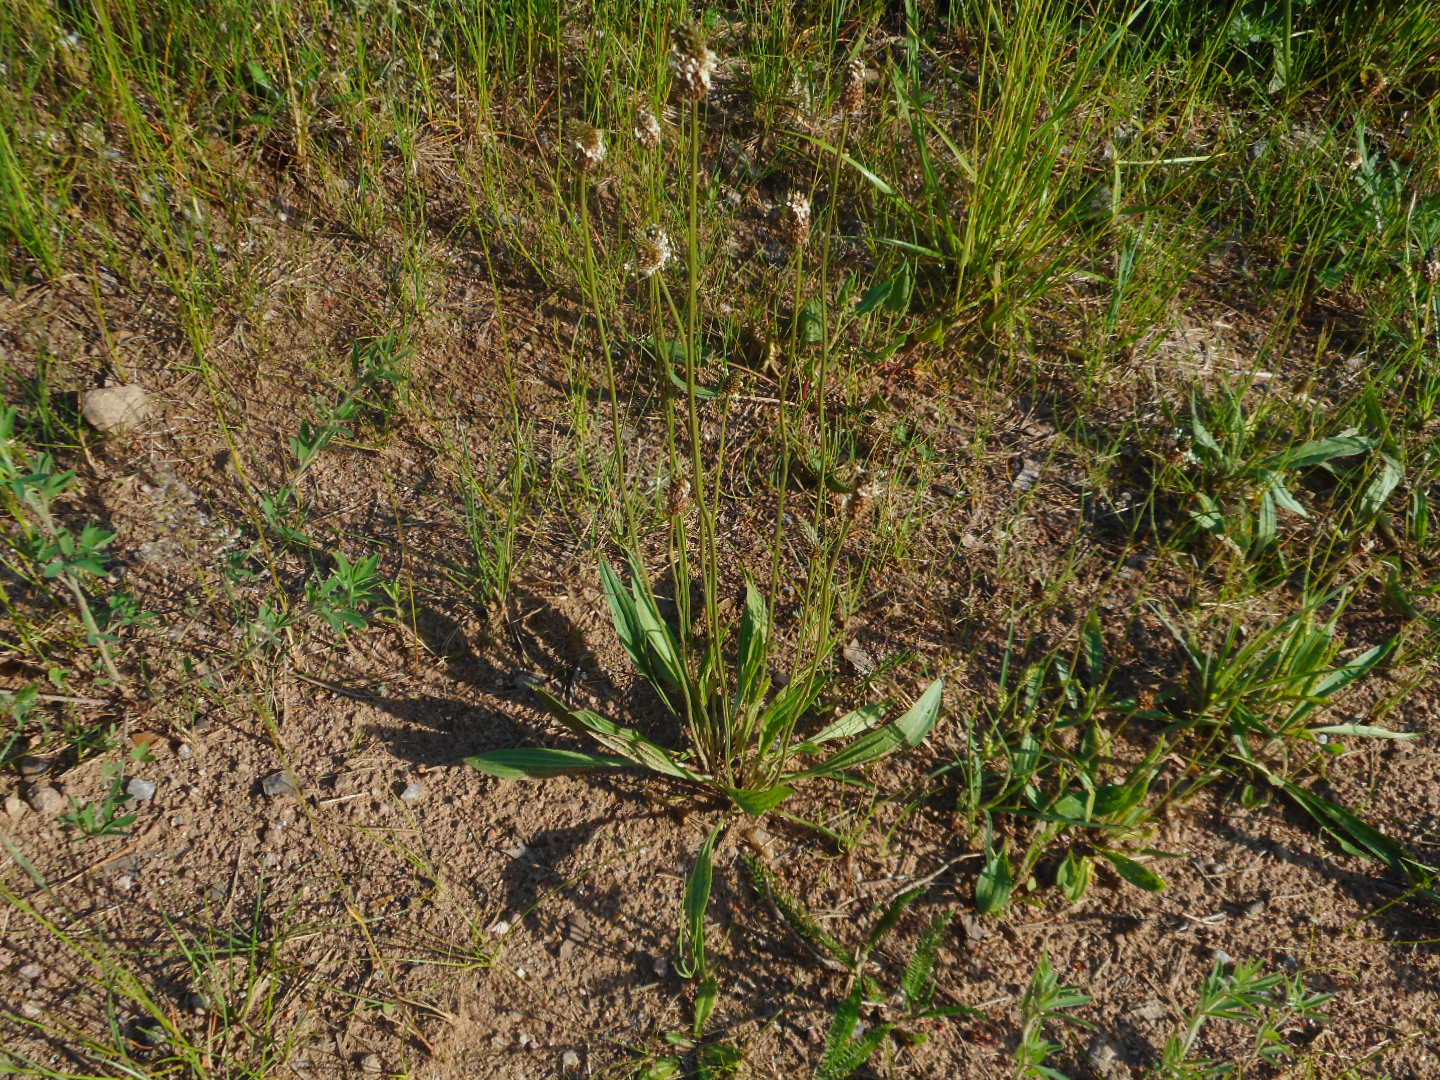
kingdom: Plantae
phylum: Tracheophyta
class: Magnoliopsida
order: Lamiales
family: Plantaginaceae
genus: Plantago
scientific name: Plantago lanceolata
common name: Ribwort plantain
